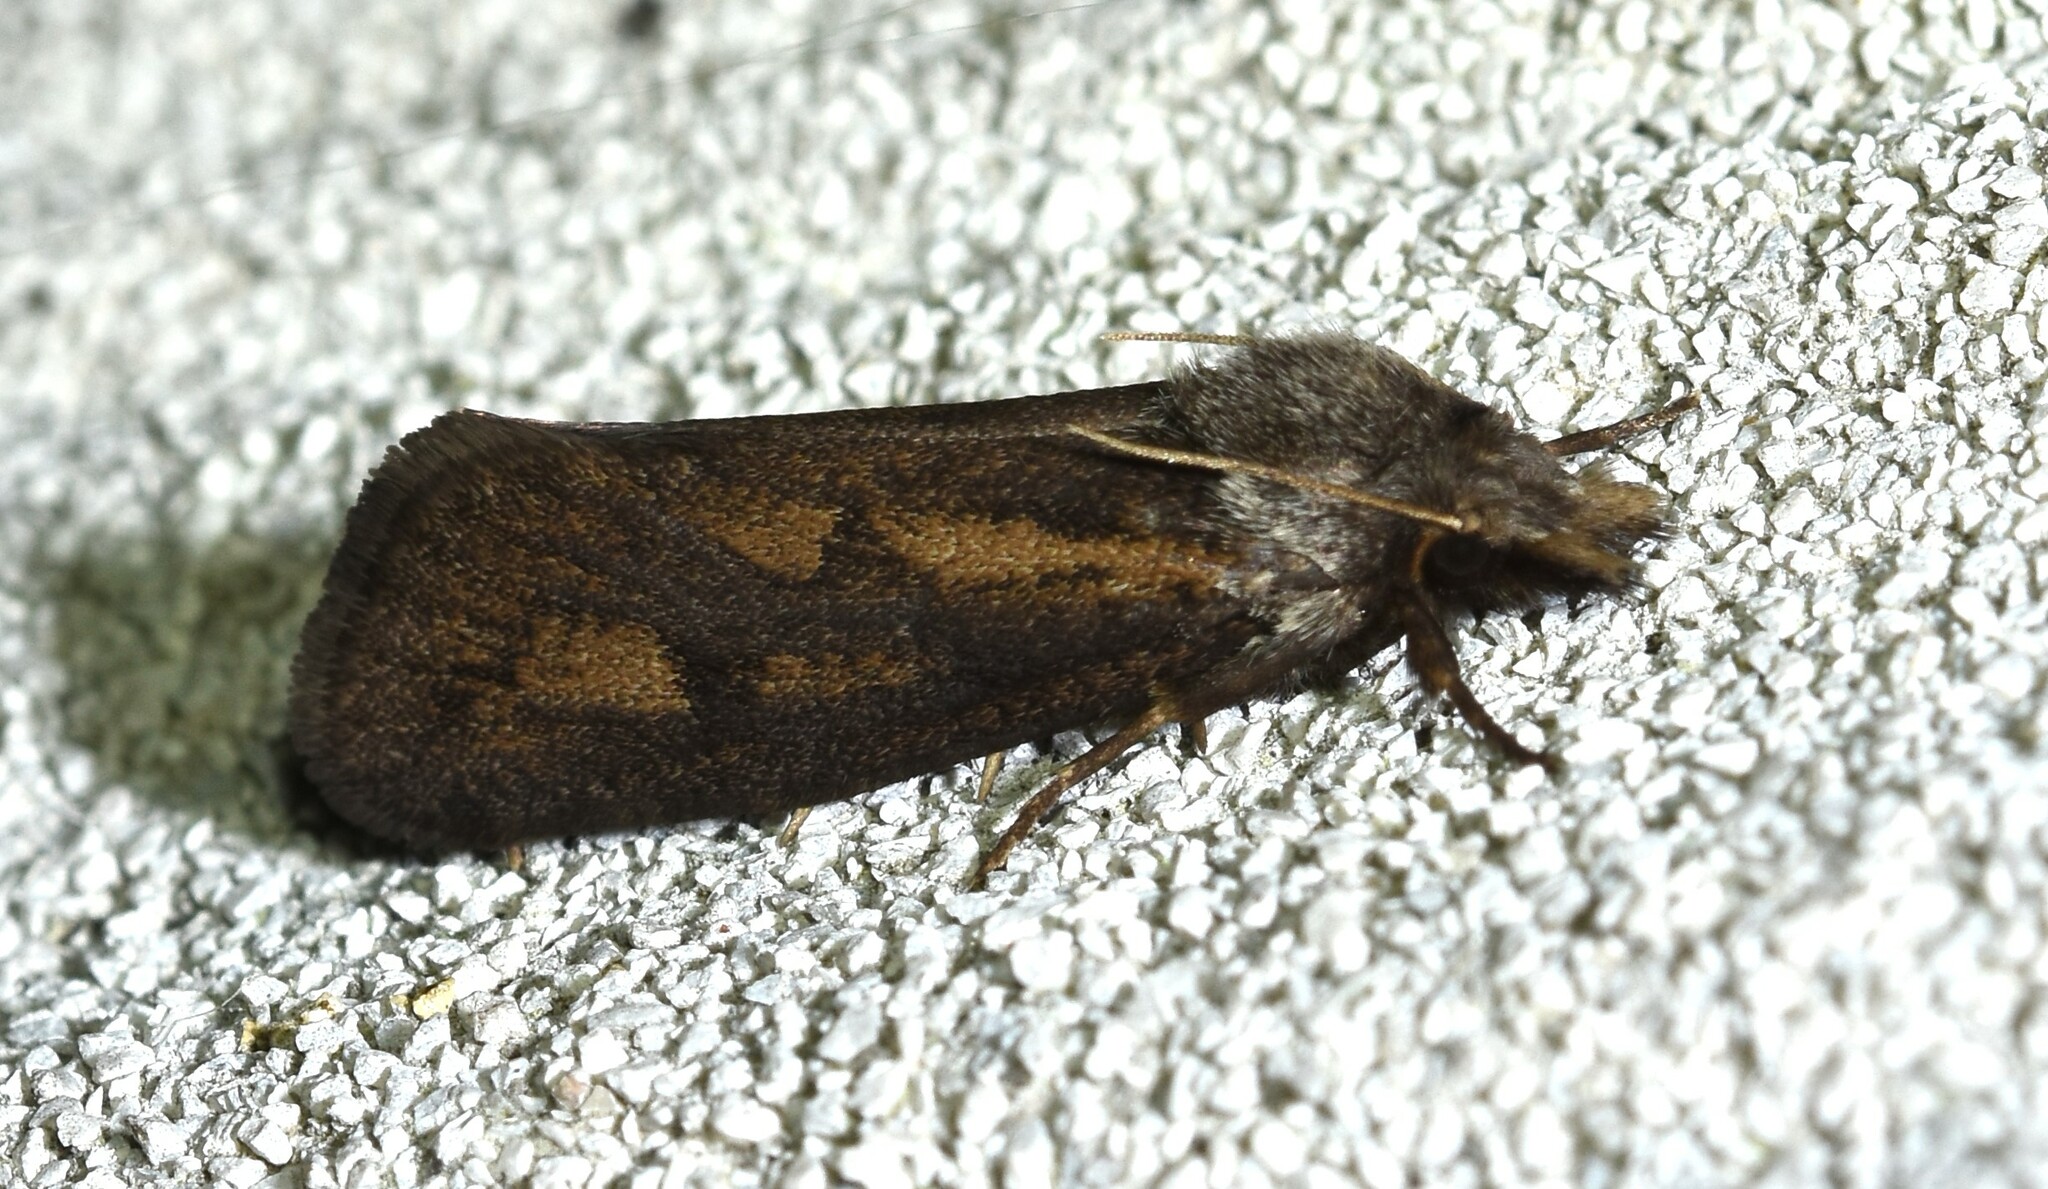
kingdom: Animalia
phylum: Arthropoda
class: Insecta
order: Lepidoptera
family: Tineidae
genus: Acrolophus
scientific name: Acrolophus popeanella
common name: Clemens' grass tubeworm moth
